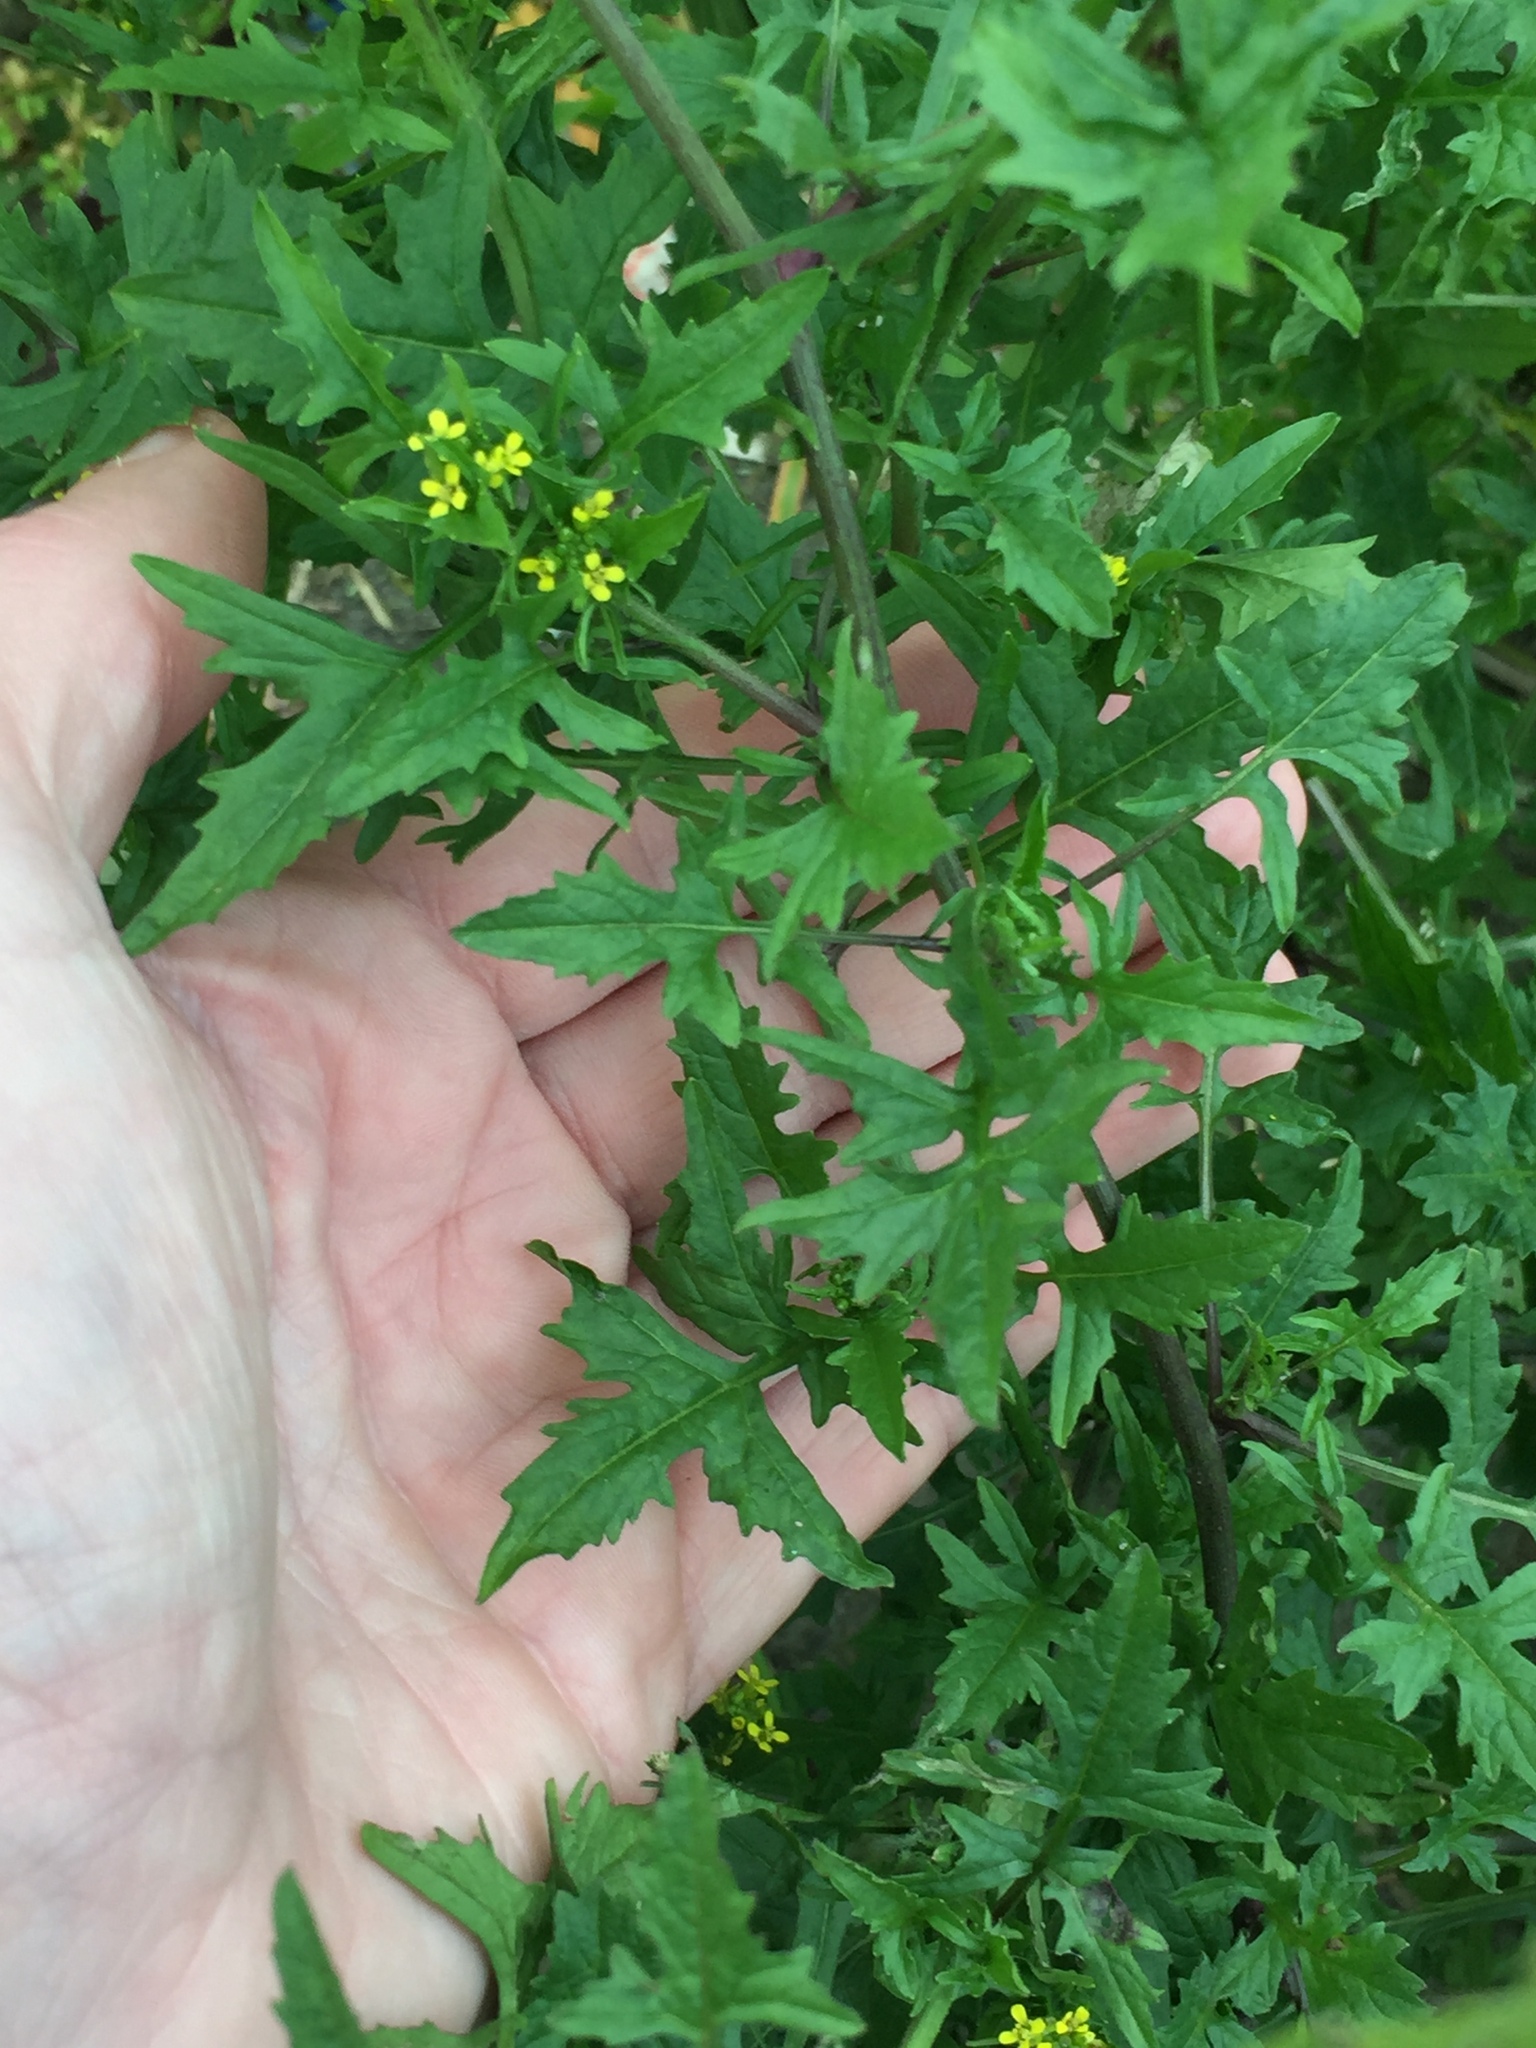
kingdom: Plantae
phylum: Tracheophyta
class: Magnoliopsida
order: Brassicales
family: Brassicaceae
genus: Sisymbrium
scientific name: Sisymbrium officinale
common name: Hedge mustard
